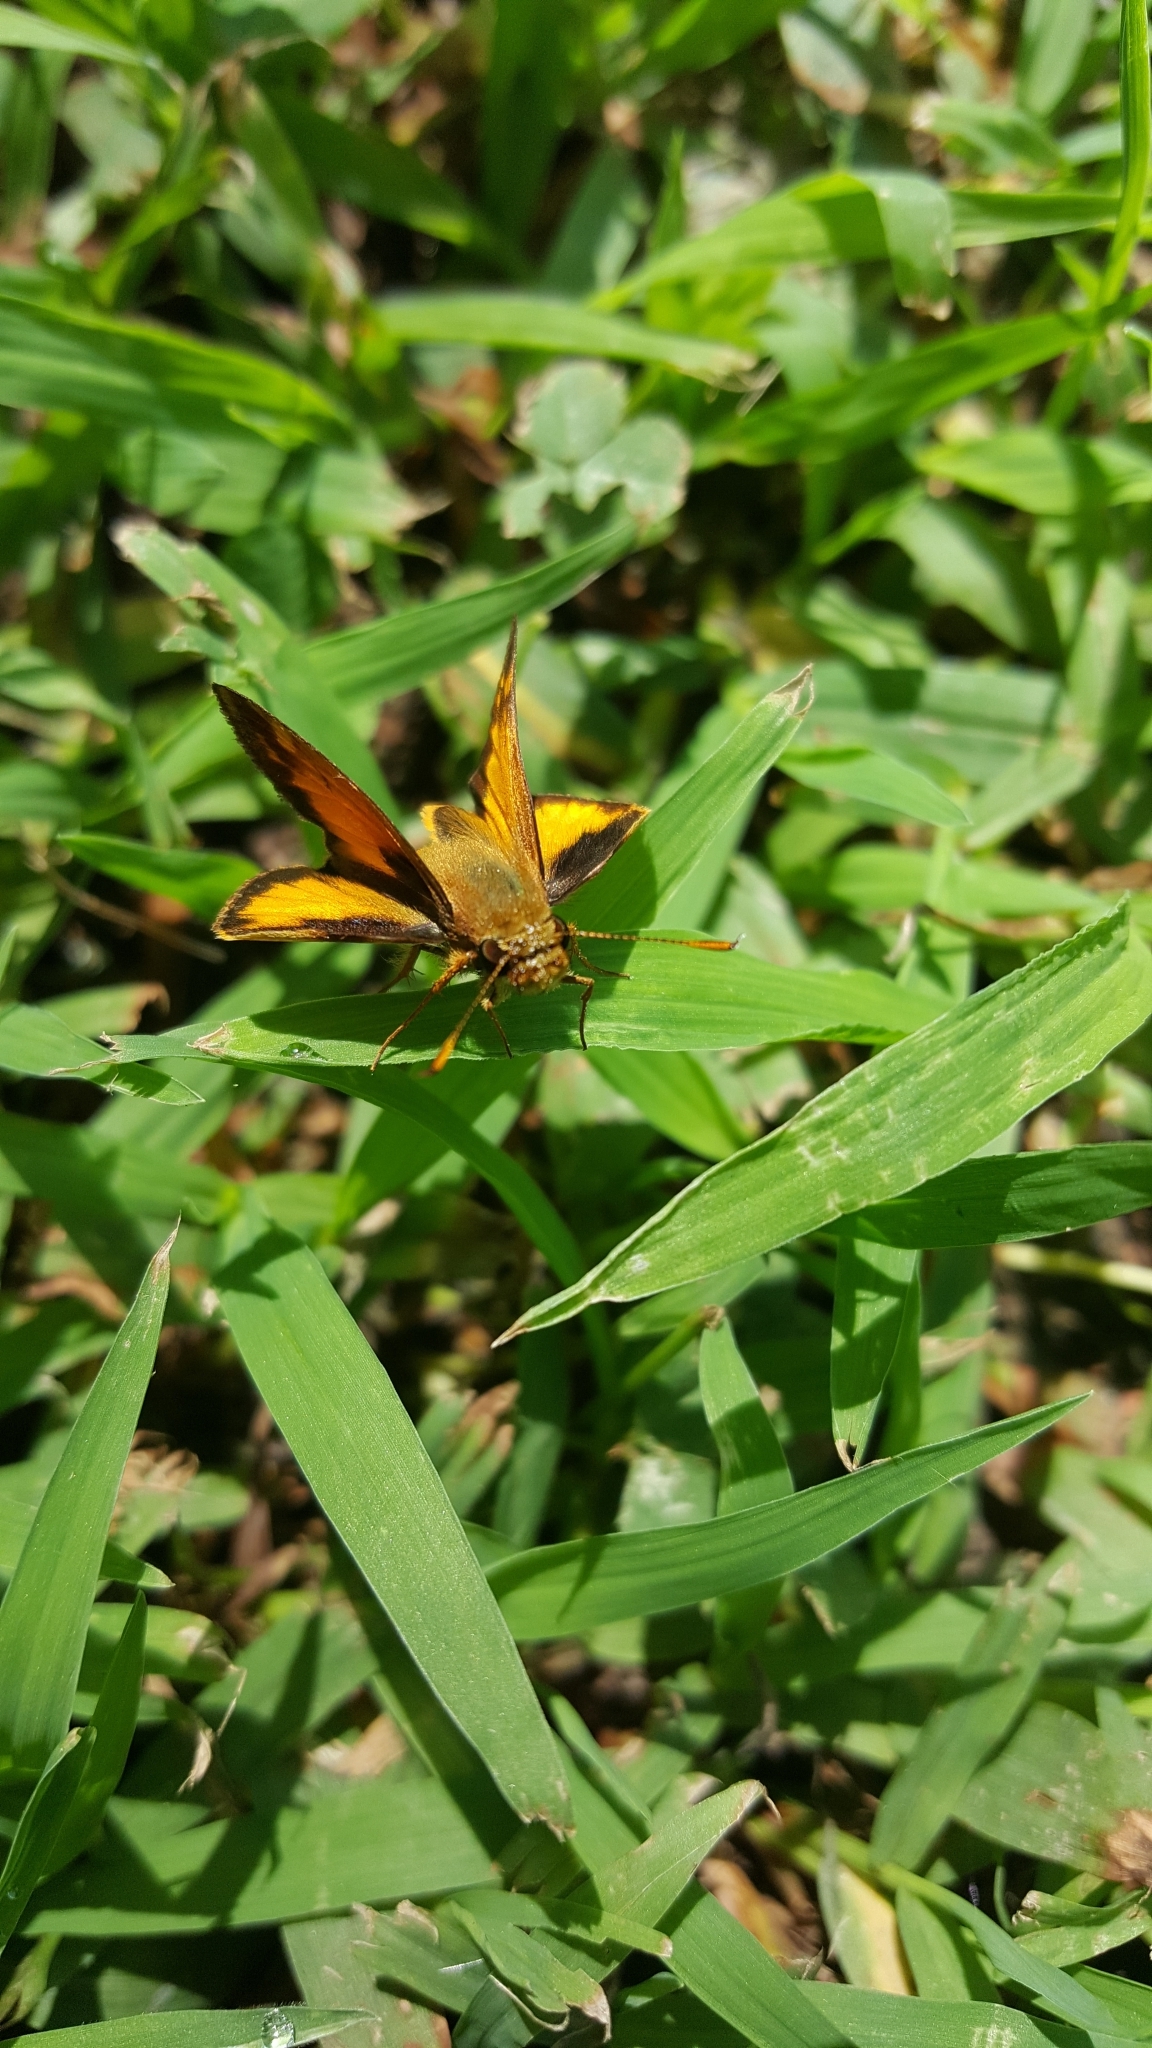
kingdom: Animalia
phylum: Arthropoda
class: Insecta
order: Lepidoptera
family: Hesperiidae
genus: Lon
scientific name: Lon zabulon
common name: Zabulon skipper
